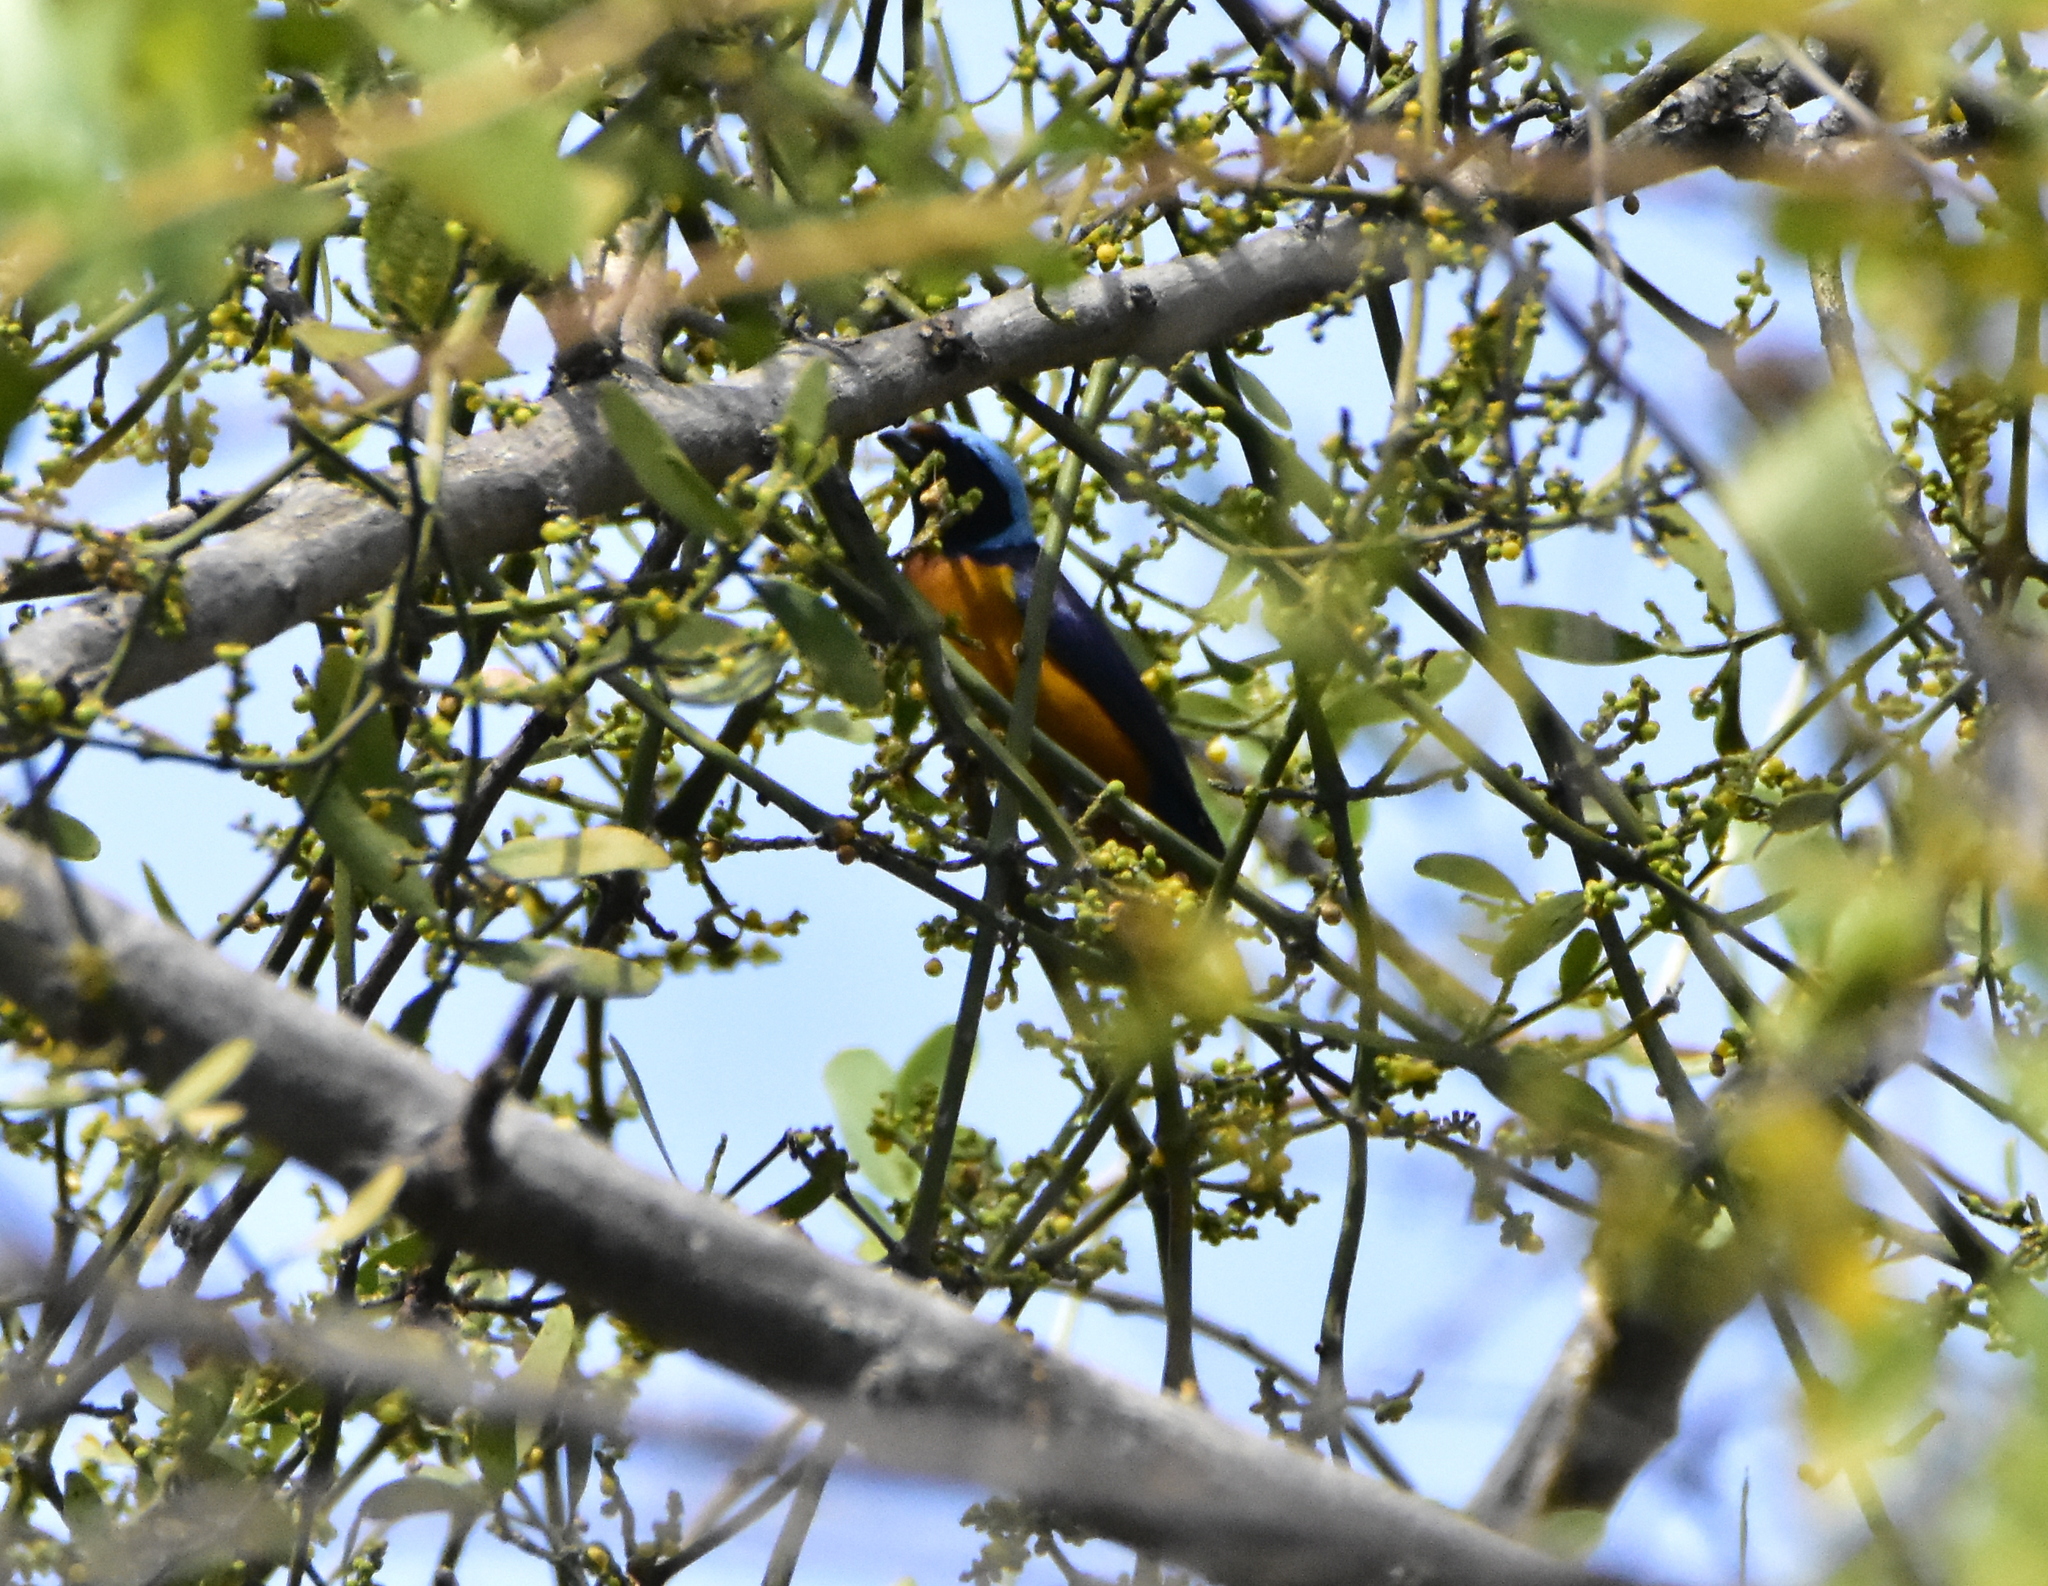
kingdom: Animalia
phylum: Chordata
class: Aves
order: Passeriformes
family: Fringillidae
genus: Euphonia
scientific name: Euphonia elegantissima
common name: Elegant euphonia
